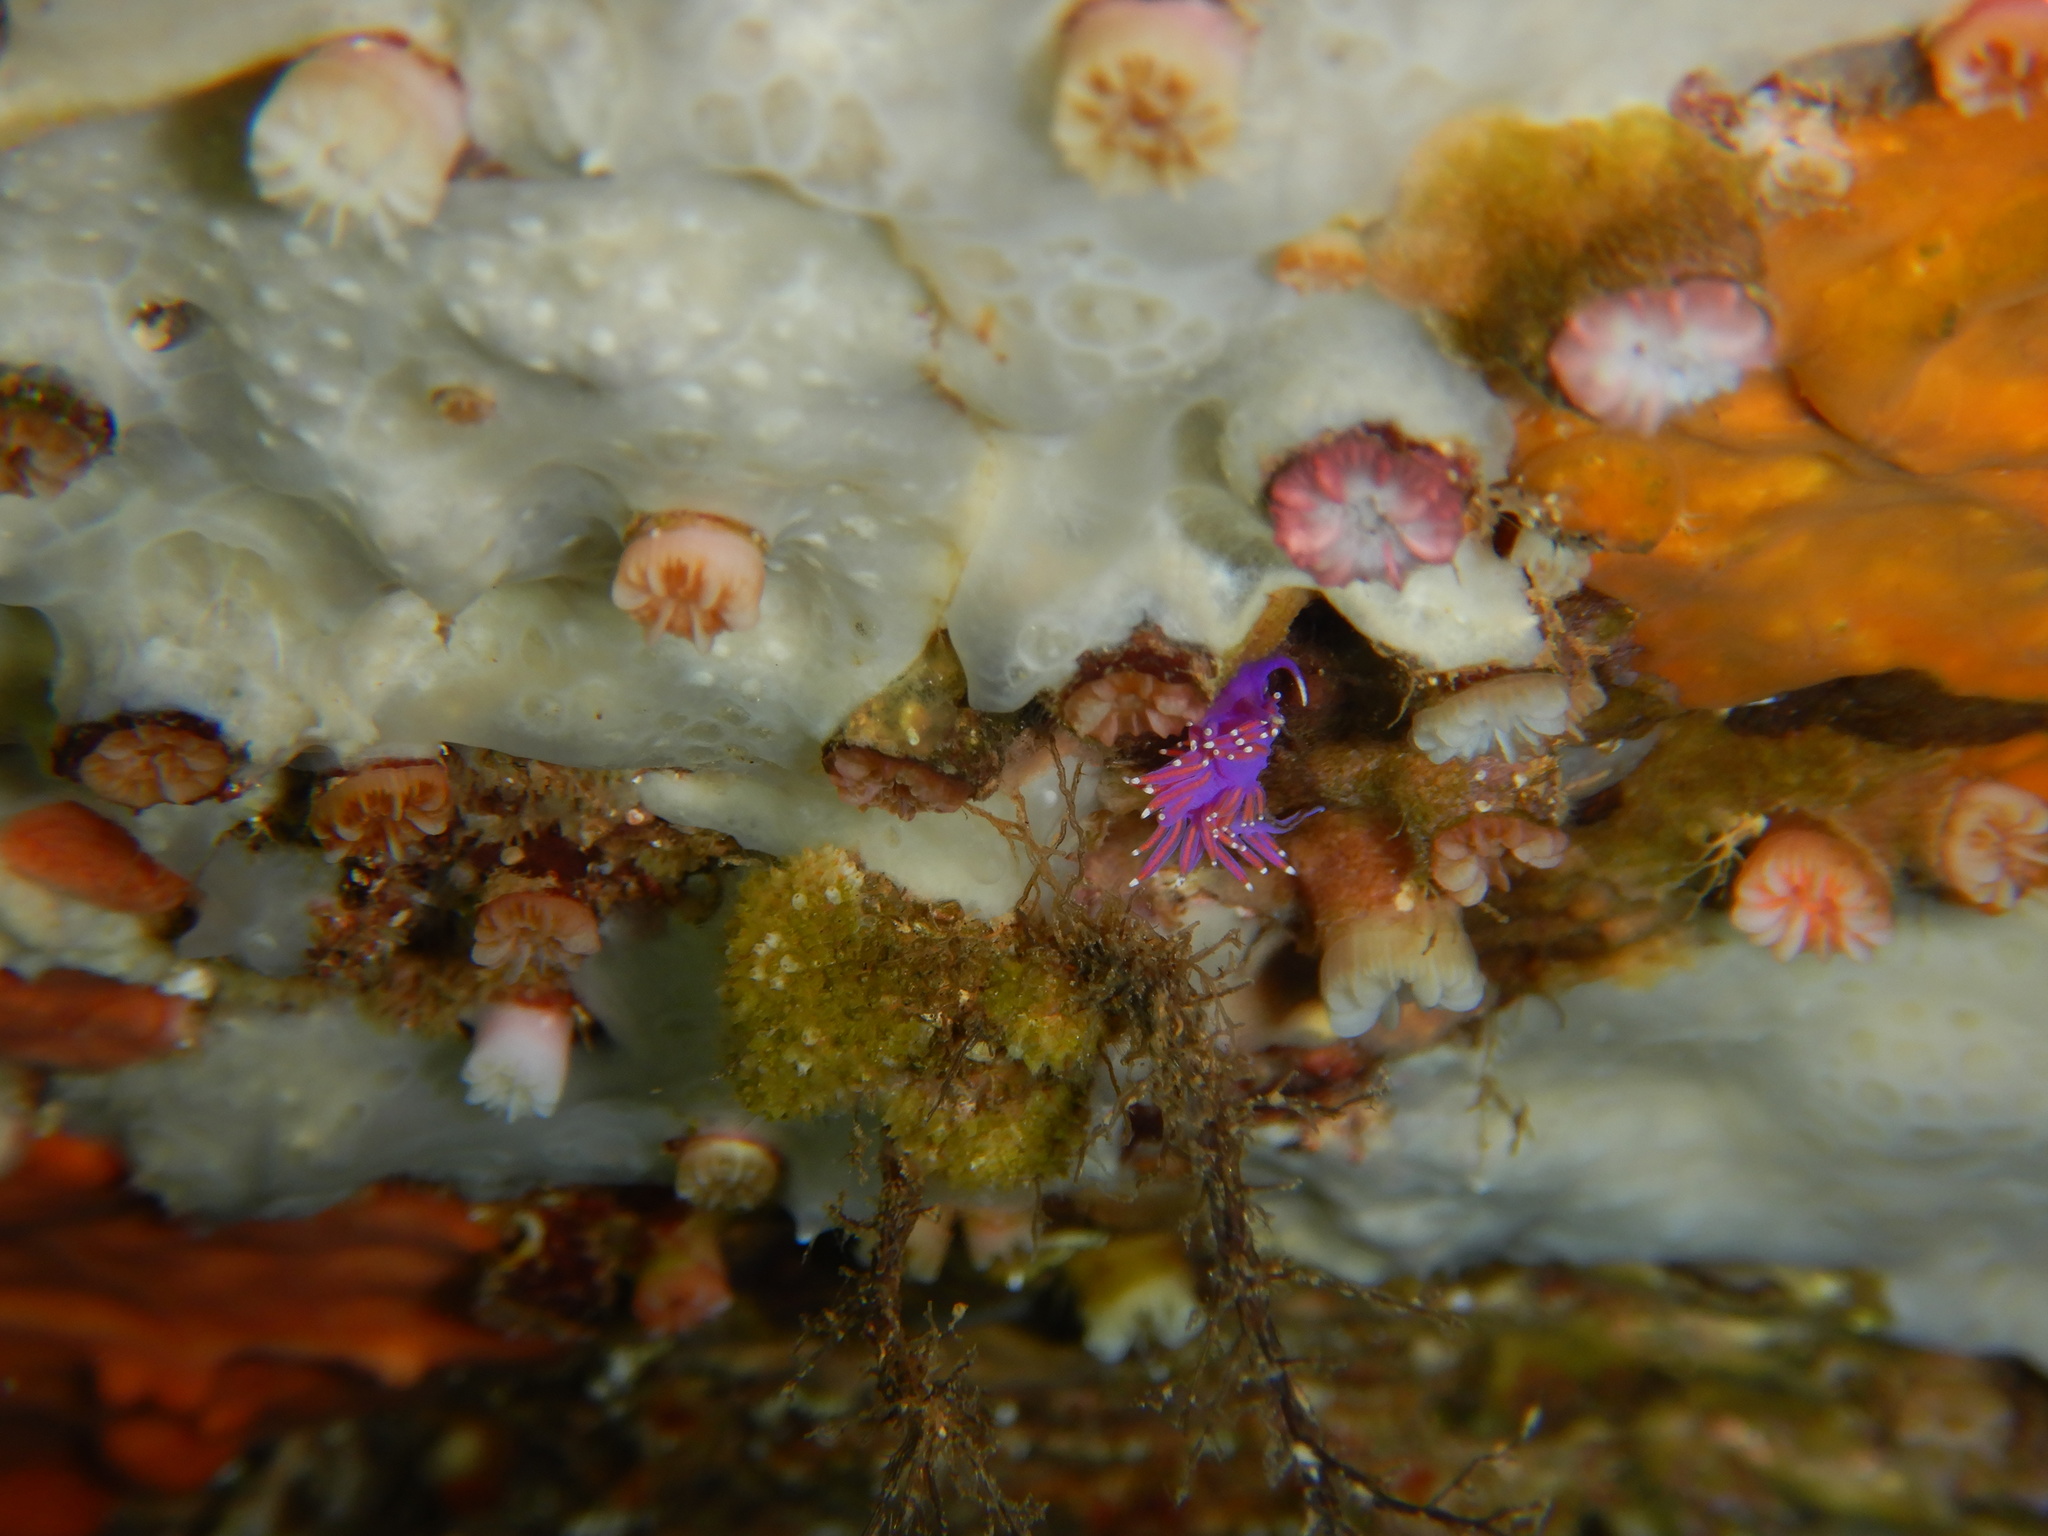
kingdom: Animalia
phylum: Mollusca
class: Gastropoda
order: Nudibranchia
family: Flabellinidae
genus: Edmundsella
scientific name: Edmundsella pedata
